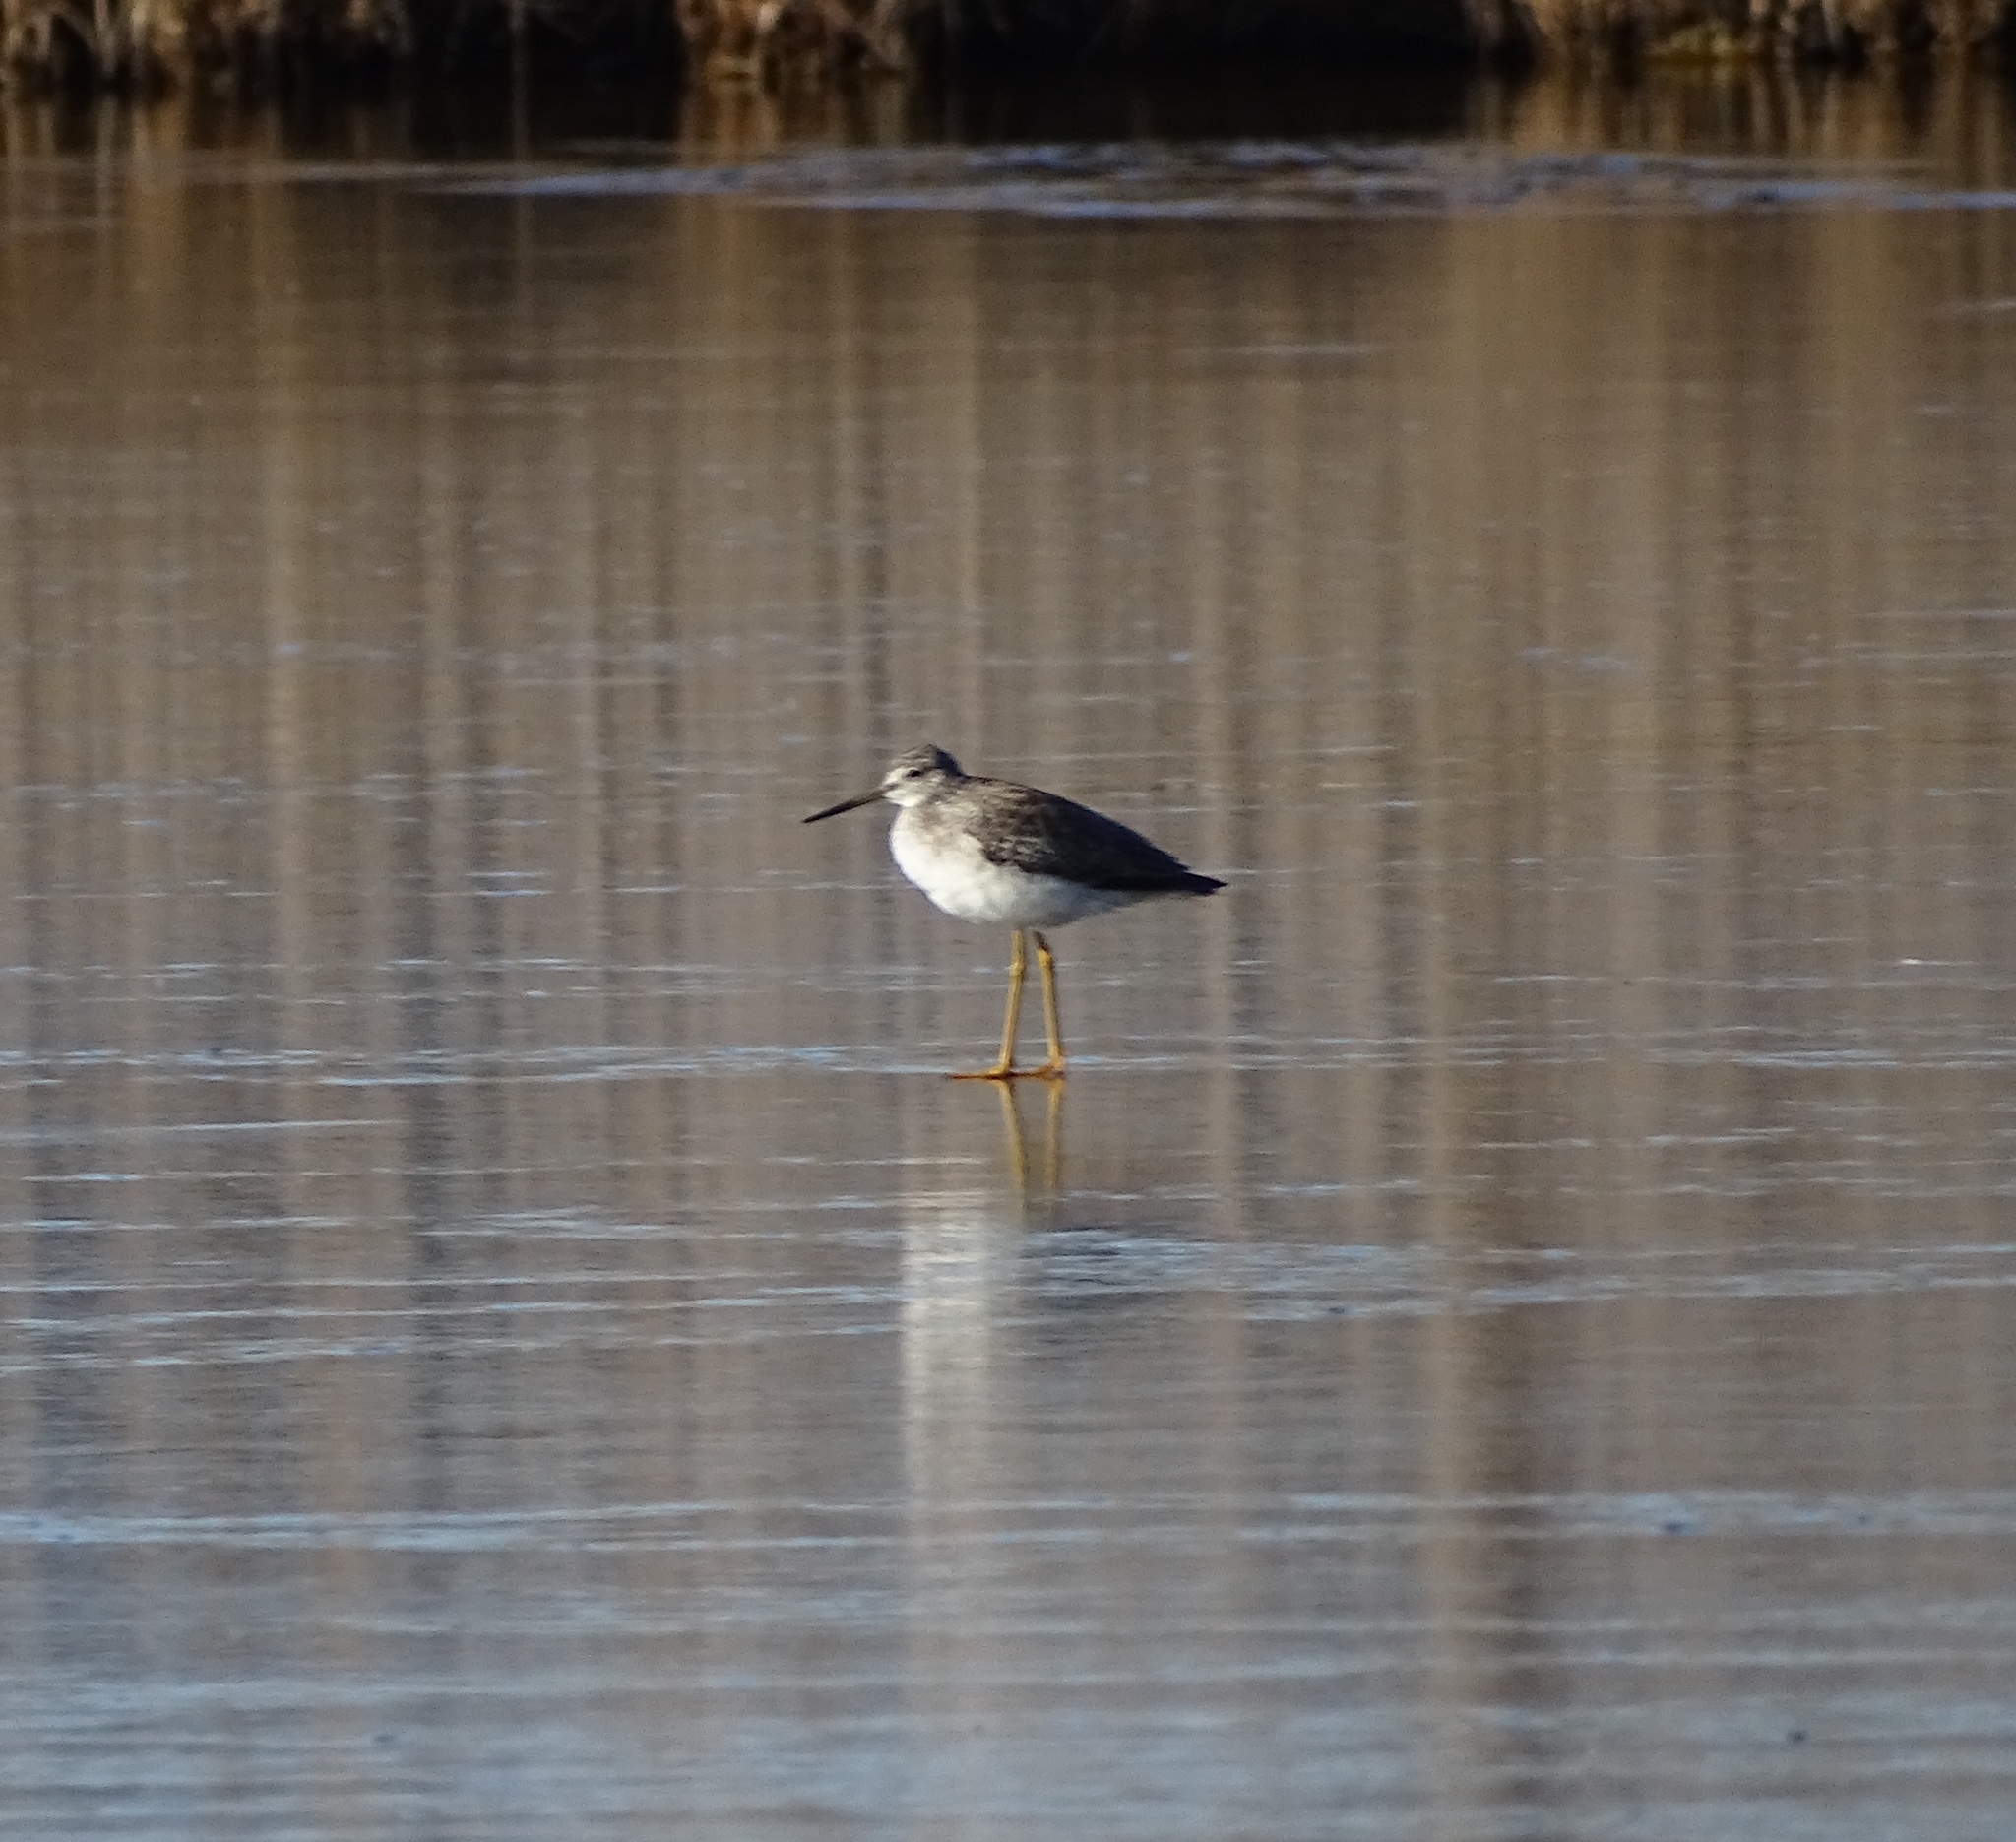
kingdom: Animalia
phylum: Chordata
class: Aves
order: Charadriiformes
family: Scolopacidae
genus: Tringa
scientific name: Tringa melanoleuca
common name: Greater yellowlegs
